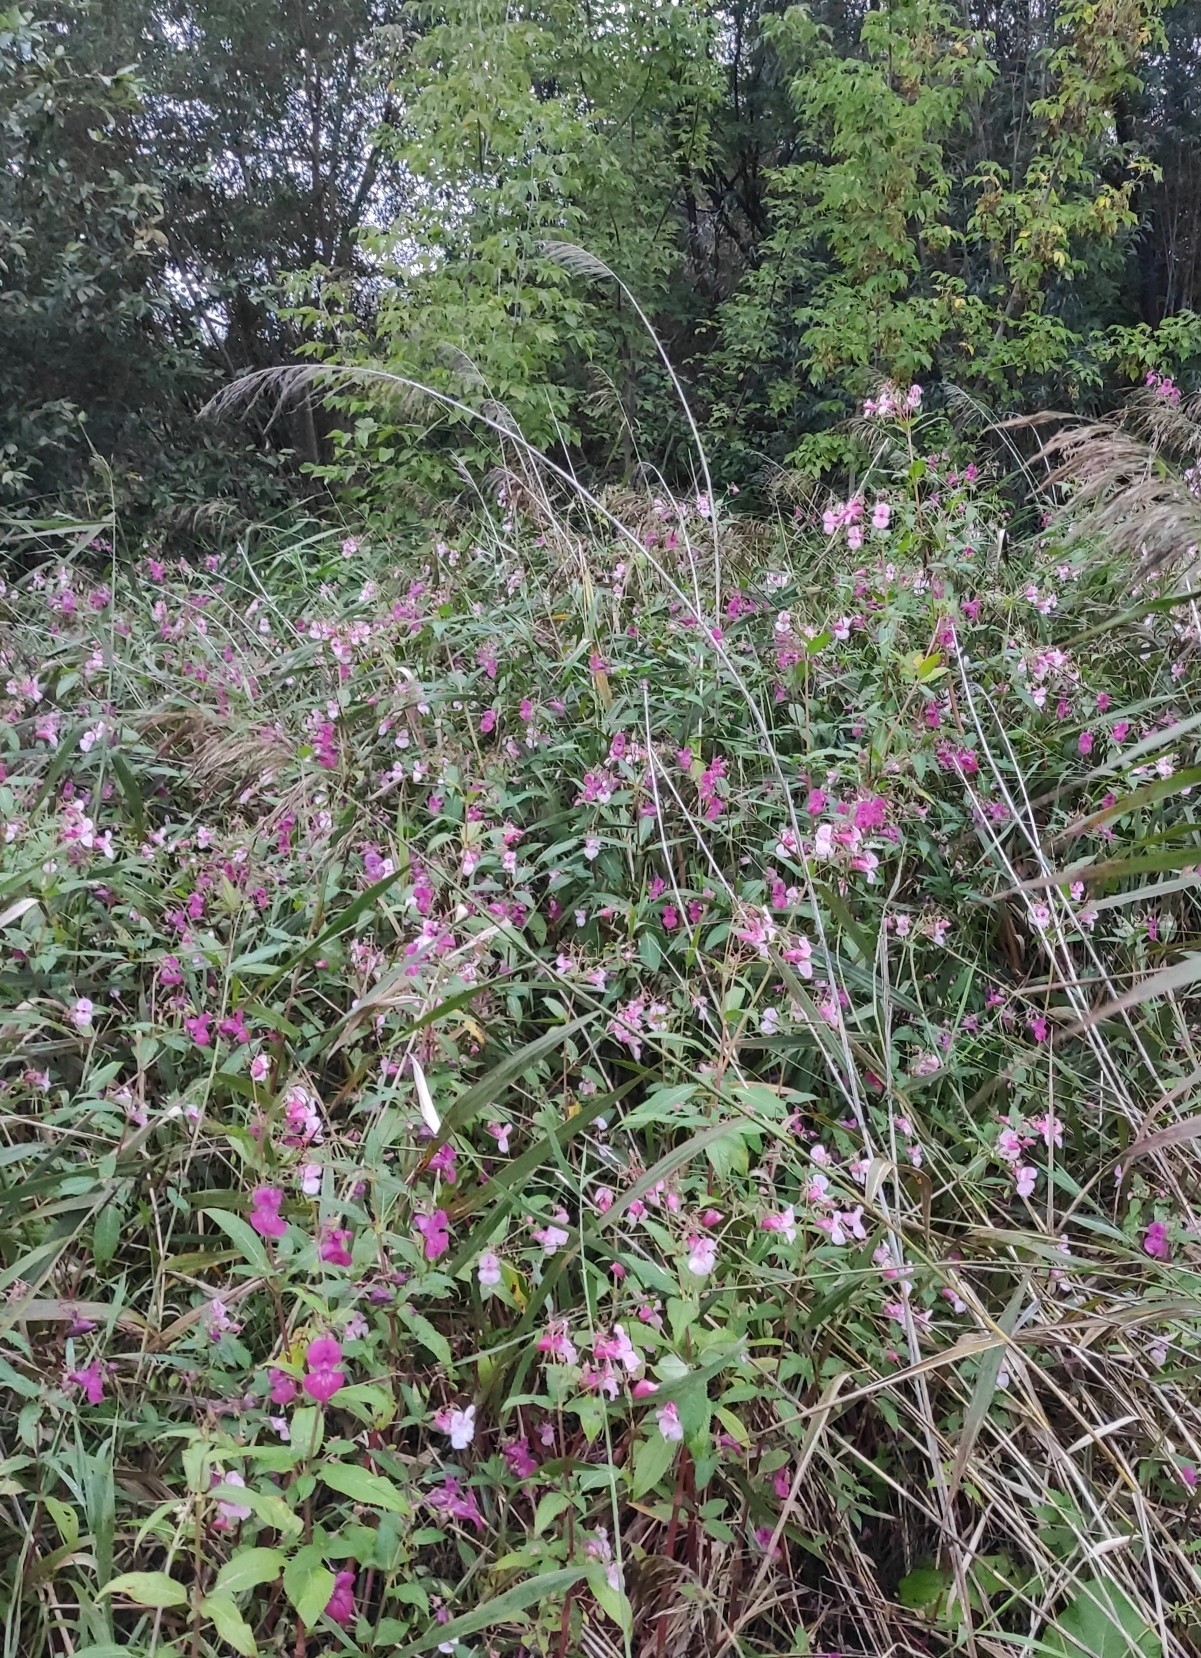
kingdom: Plantae
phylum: Tracheophyta
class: Magnoliopsida
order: Ericales
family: Balsaminaceae
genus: Impatiens
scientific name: Impatiens glandulifera
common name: Himalayan balsam
